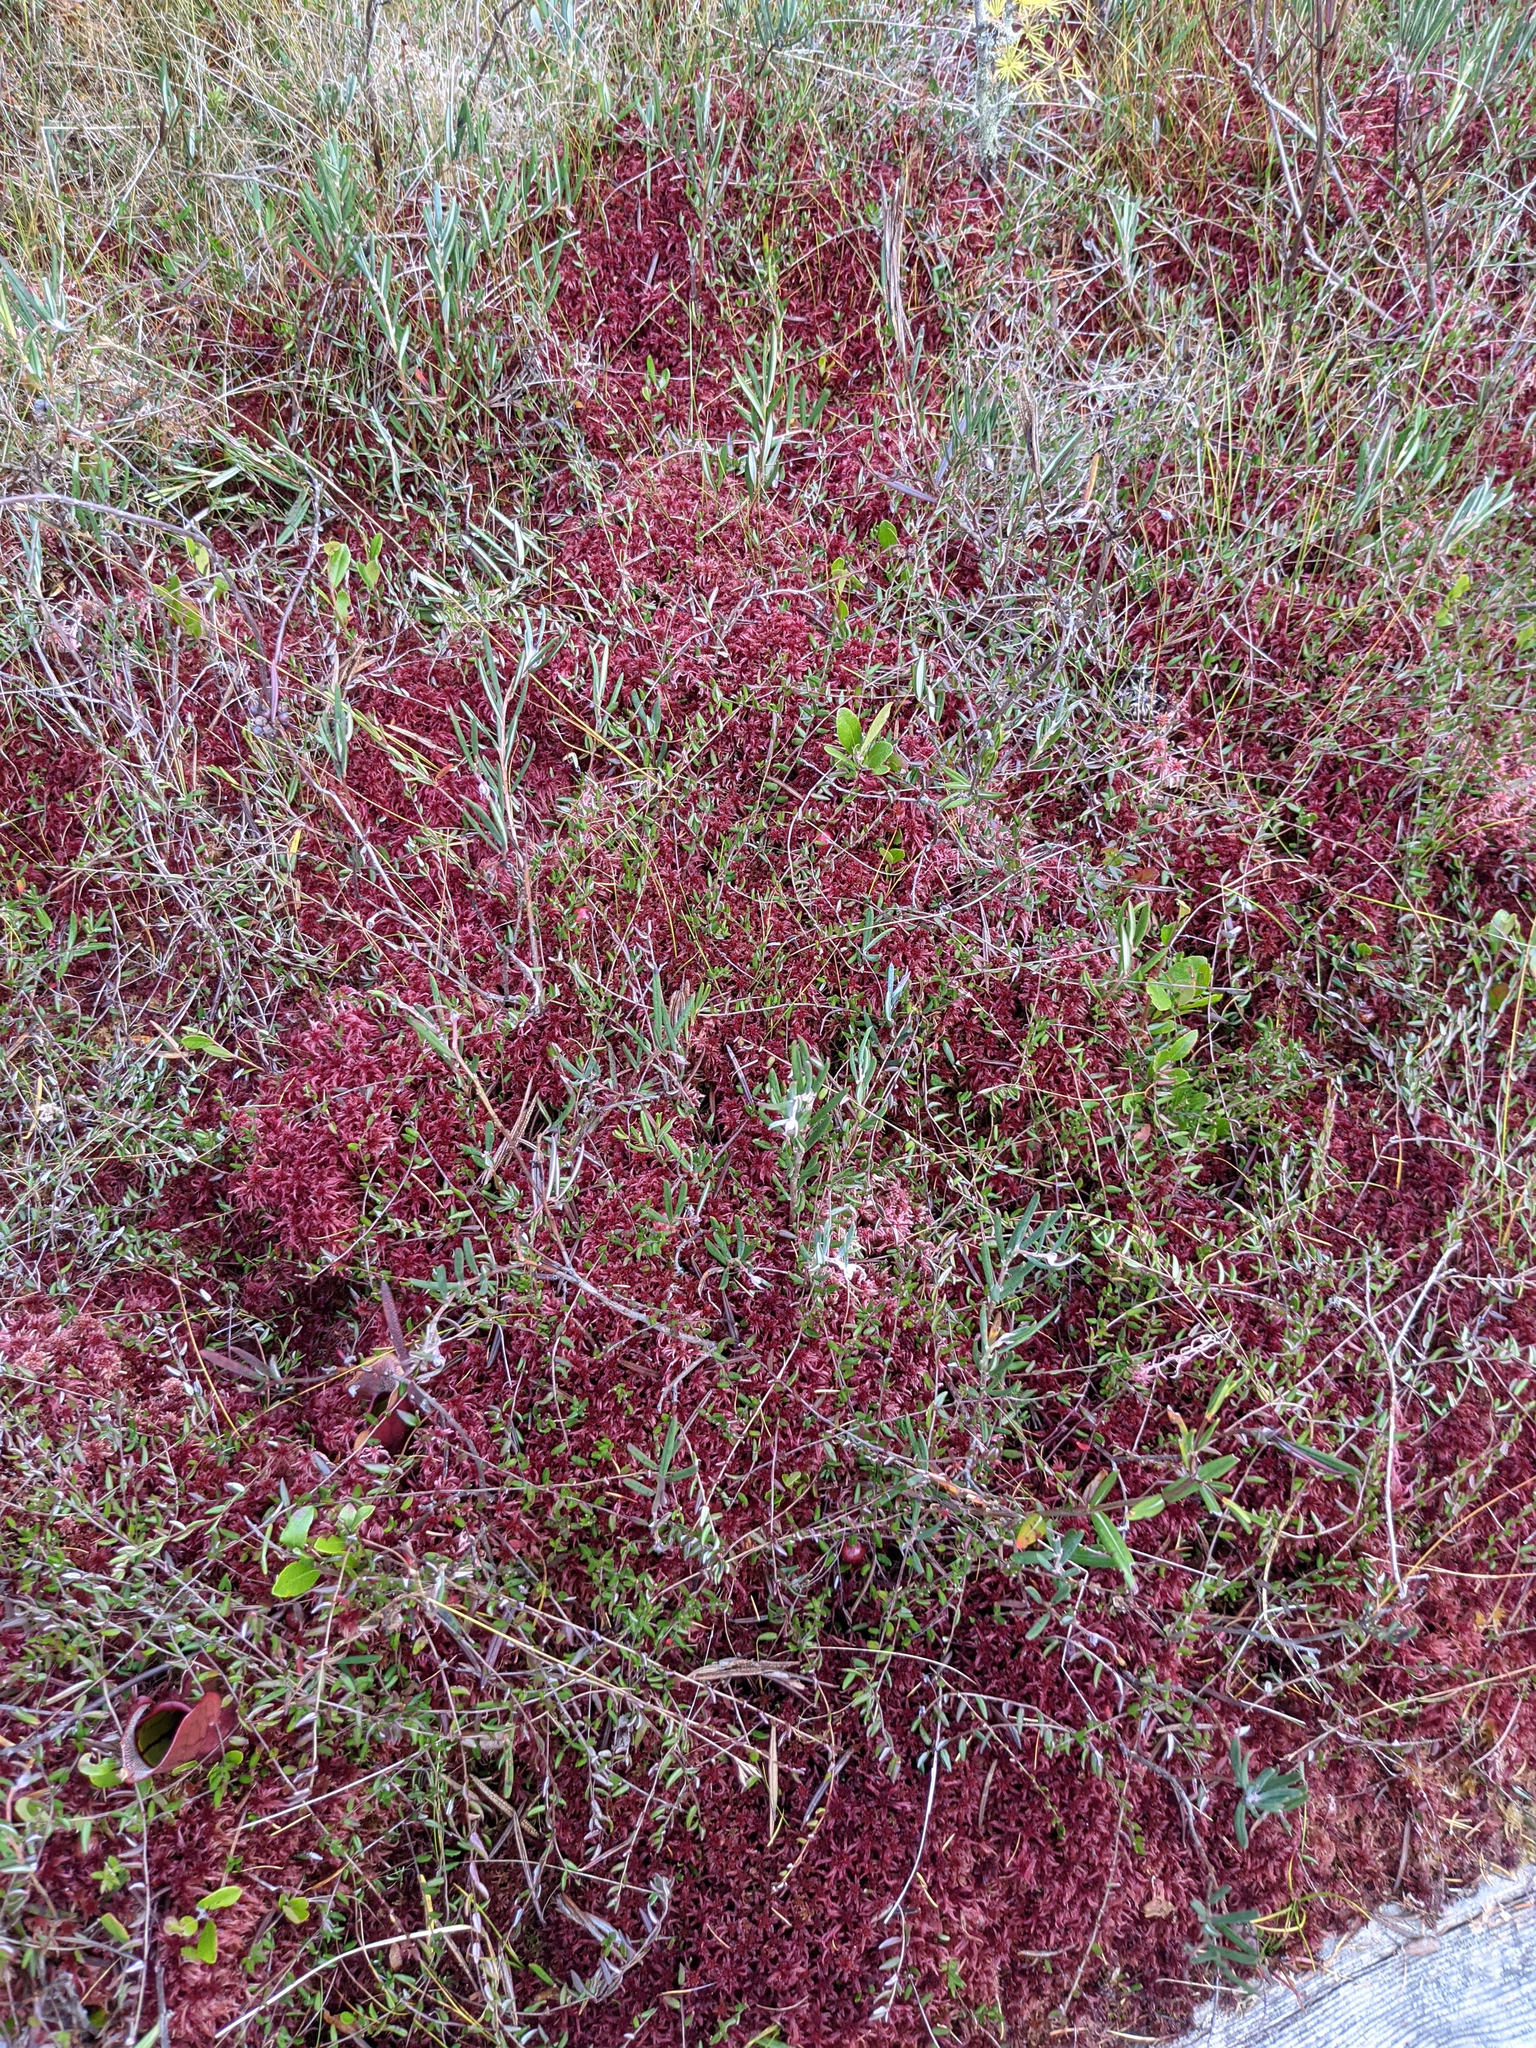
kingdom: Plantae
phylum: Tracheophyta
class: Magnoliopsida
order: Ericales
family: Ericaceae
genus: Andromeda
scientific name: Andromeda polifolia
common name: Bog-rosemary
